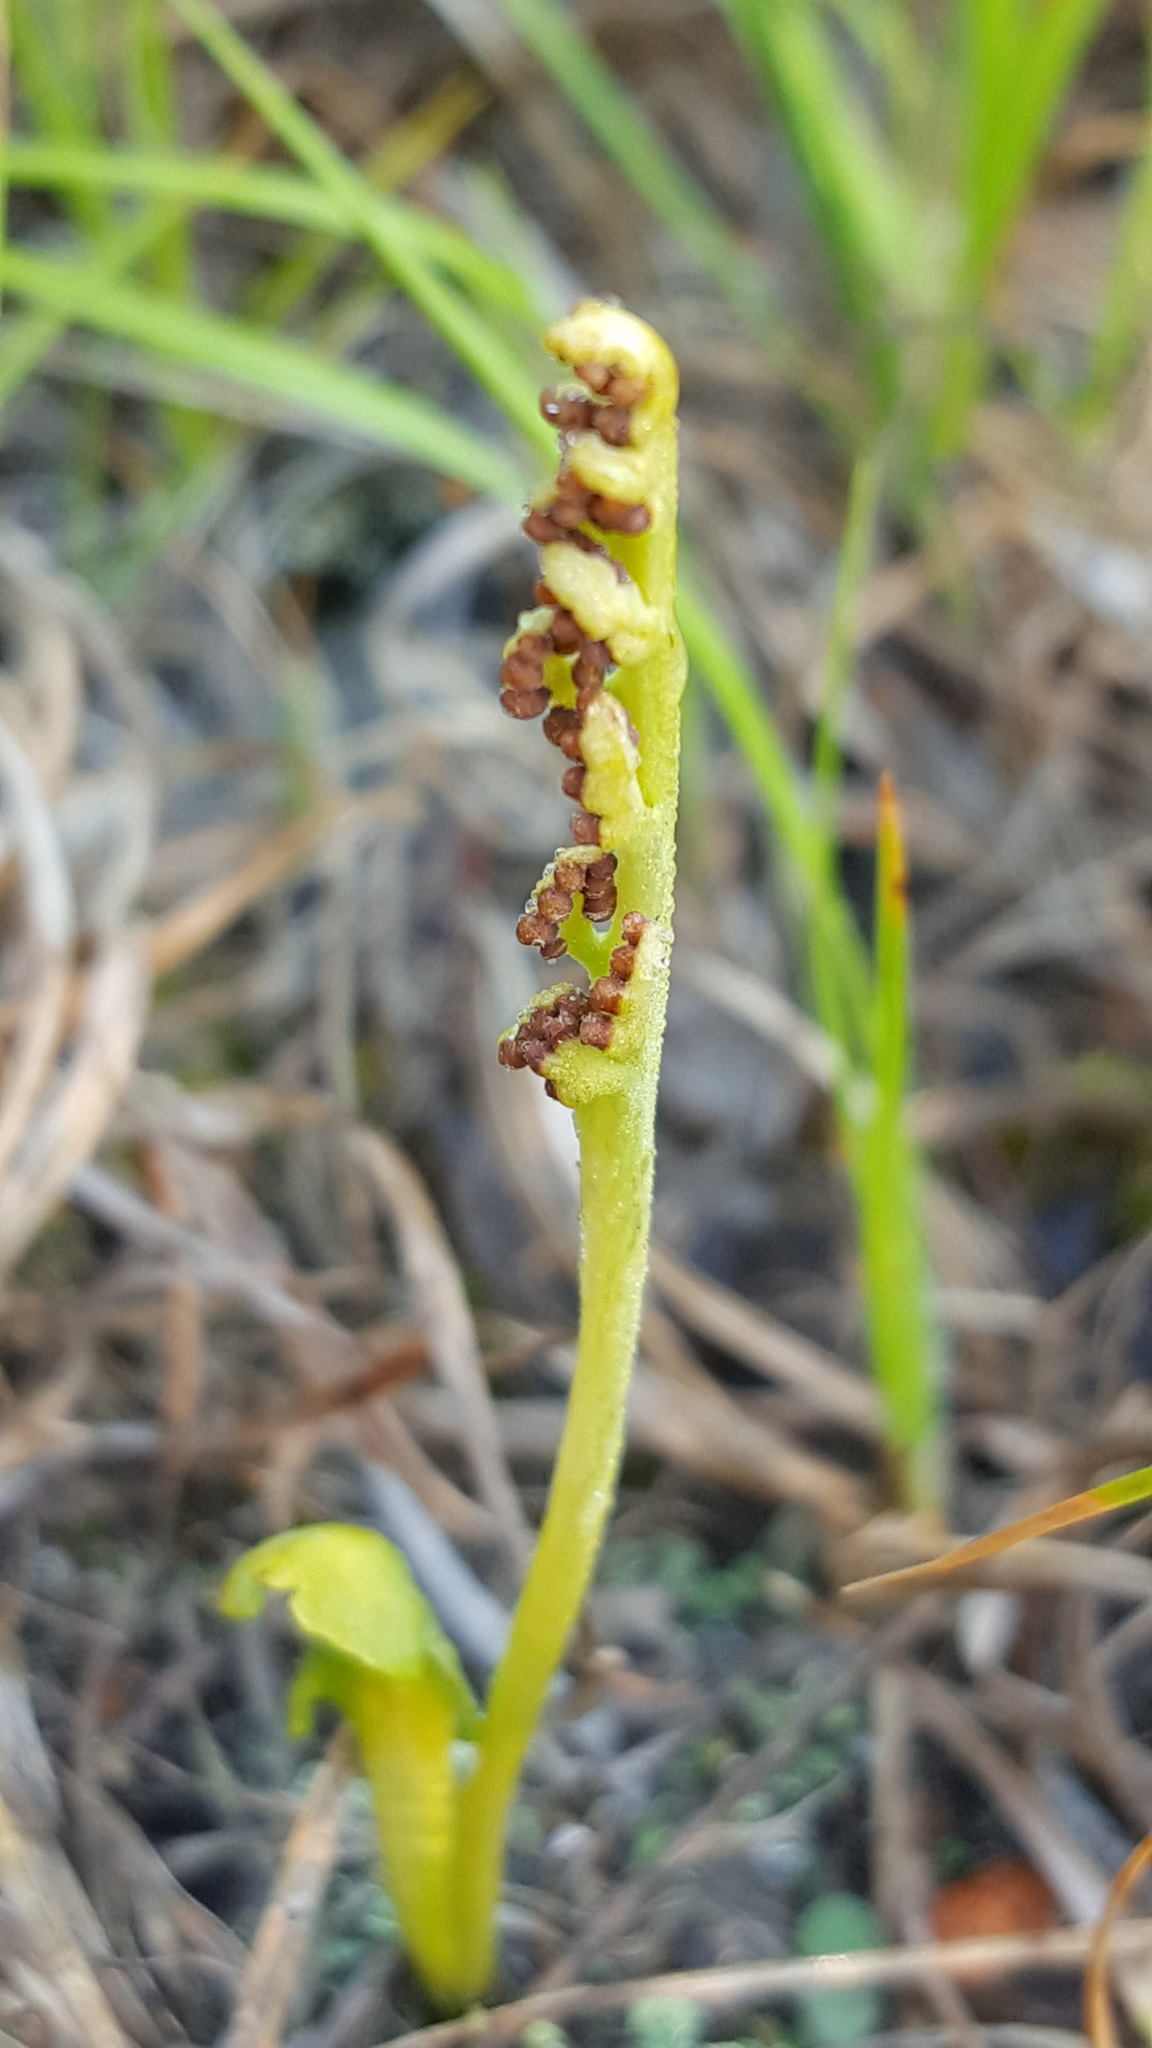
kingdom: Plantae
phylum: Tracheophyta
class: Polypodiopsida
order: Ophioglossales
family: Ophioglossaceae
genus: Botrychium
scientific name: Botrychium simplex
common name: Least moonwort
